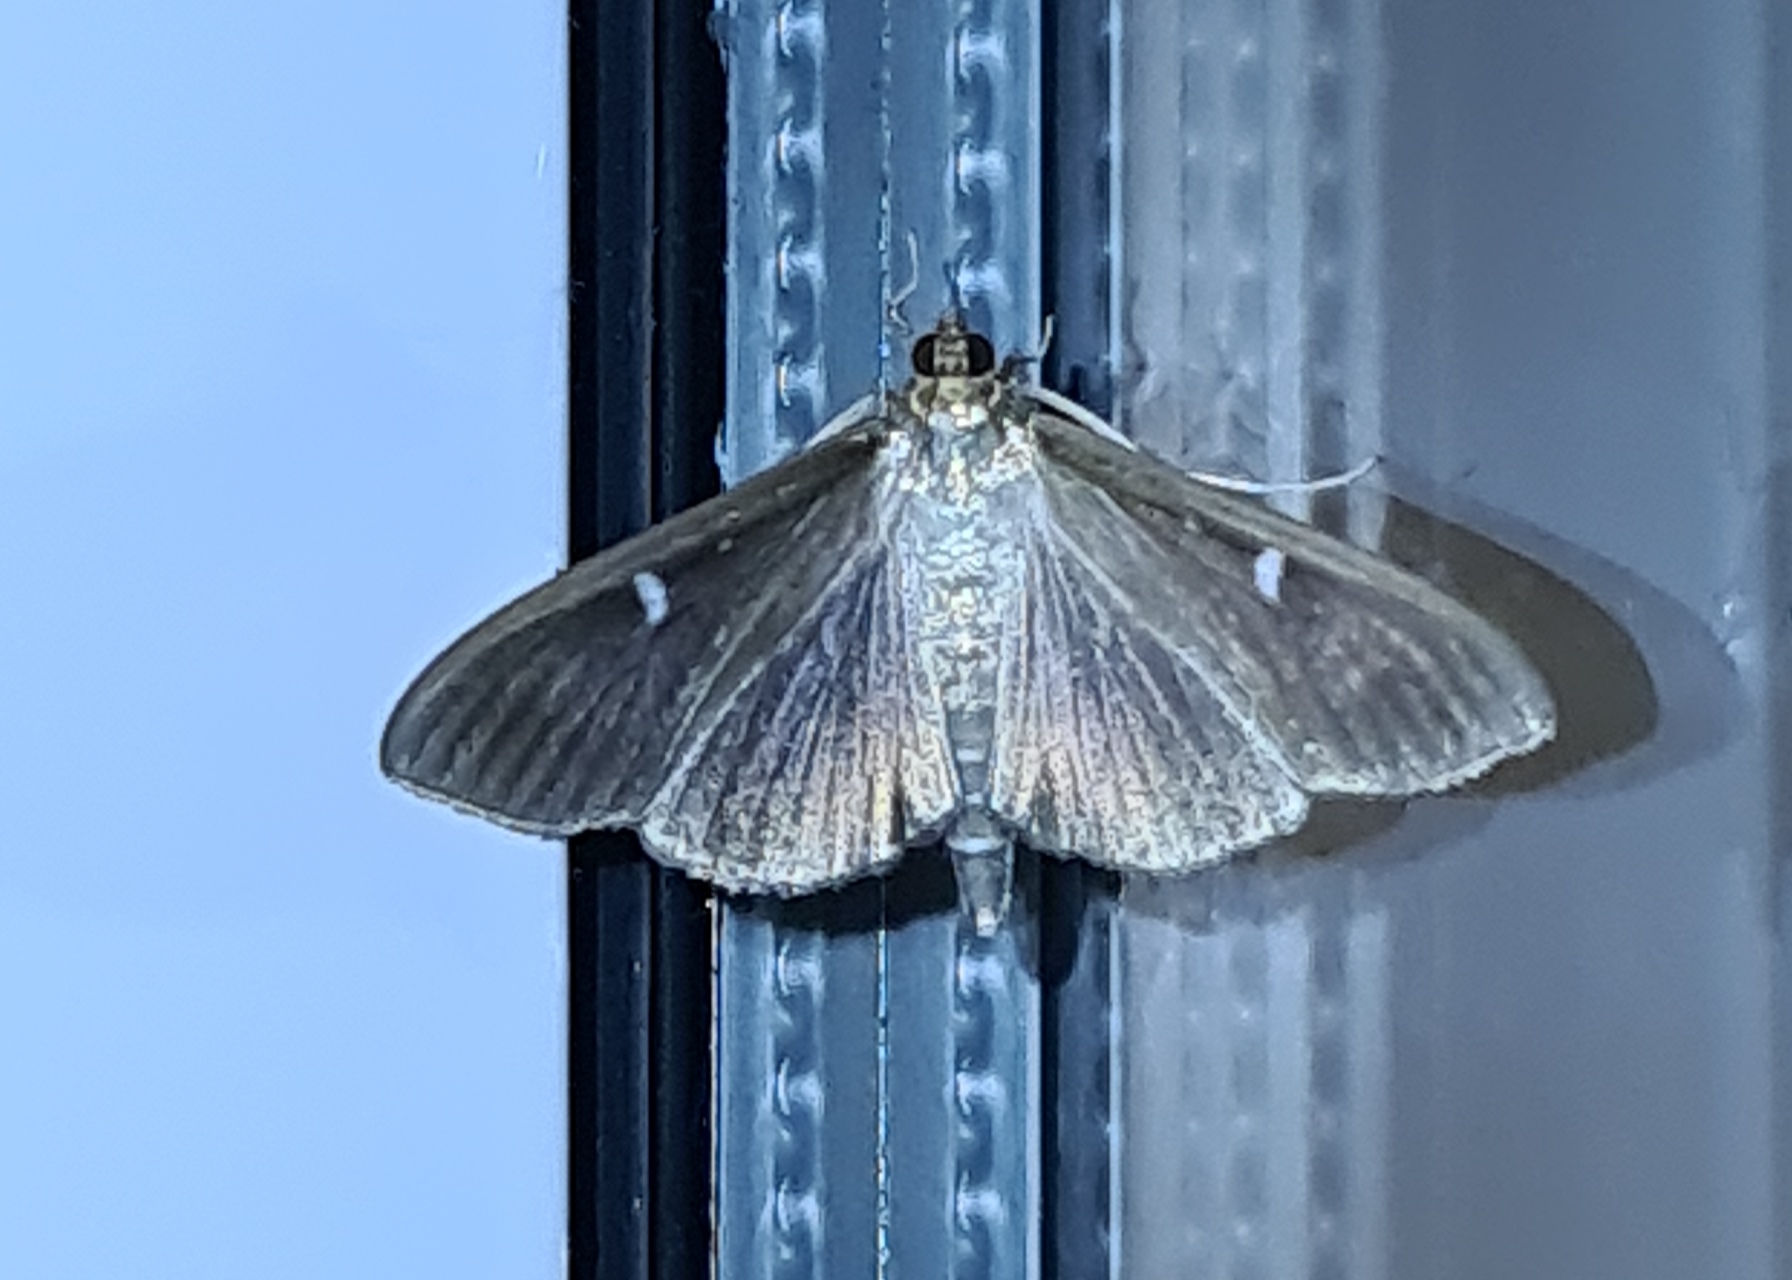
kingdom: Animalia
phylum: Arthropoda
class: Insecta
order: Lepidoptera
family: Crambidae
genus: Cydalima
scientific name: Cydalima perspectalis
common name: Box tree moth
